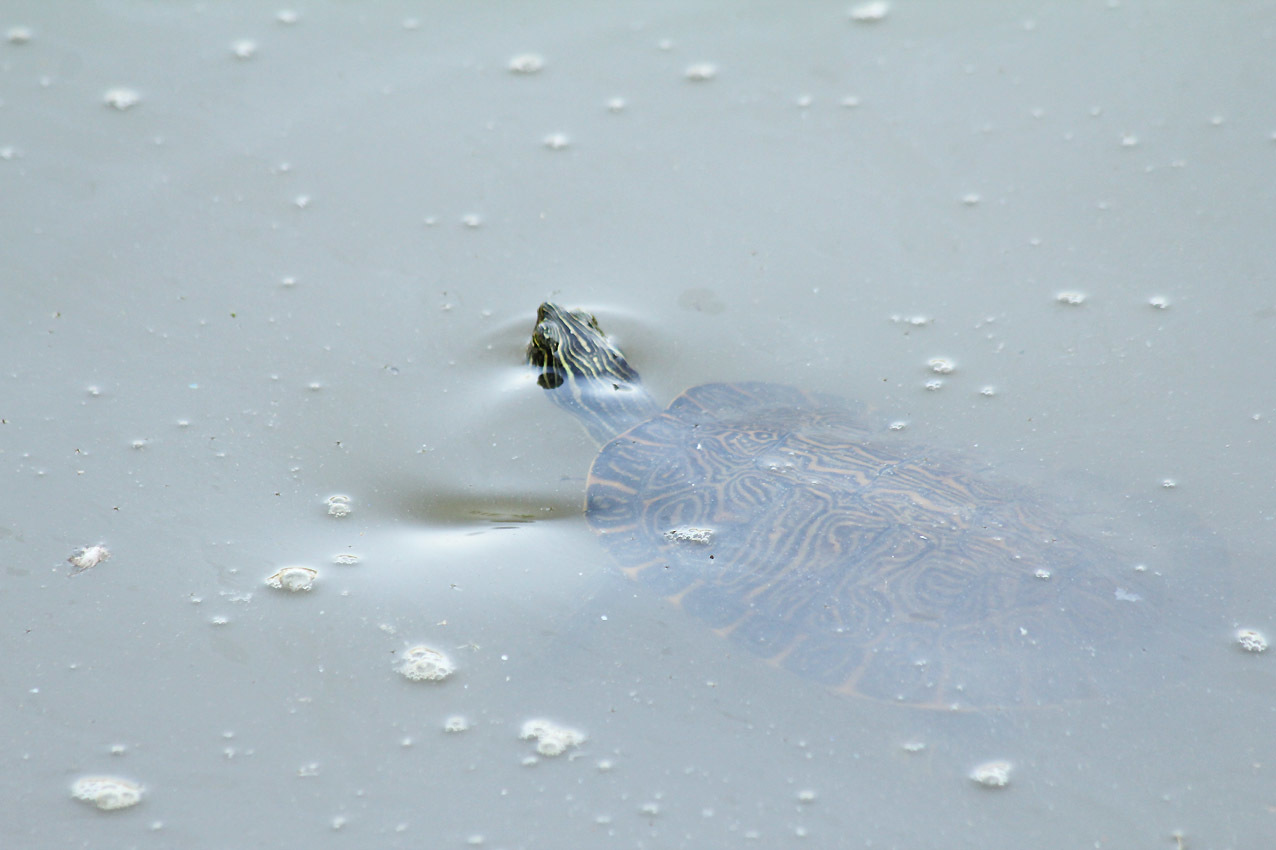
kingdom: Animalia
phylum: Chordata
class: Testudines
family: Emydidae
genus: Pseudemys
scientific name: Pseudemys concinna
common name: Eastern river cooter
